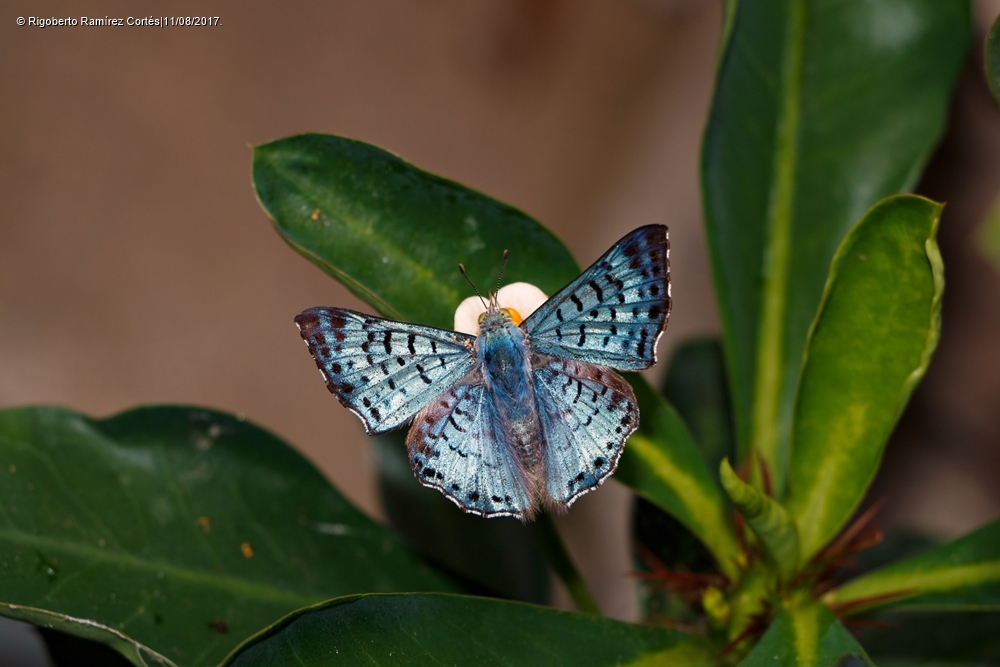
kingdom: Animalia
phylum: Arthropoda
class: Insecta
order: Lepidoptera
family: Riodinidae
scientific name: Riodinidae
